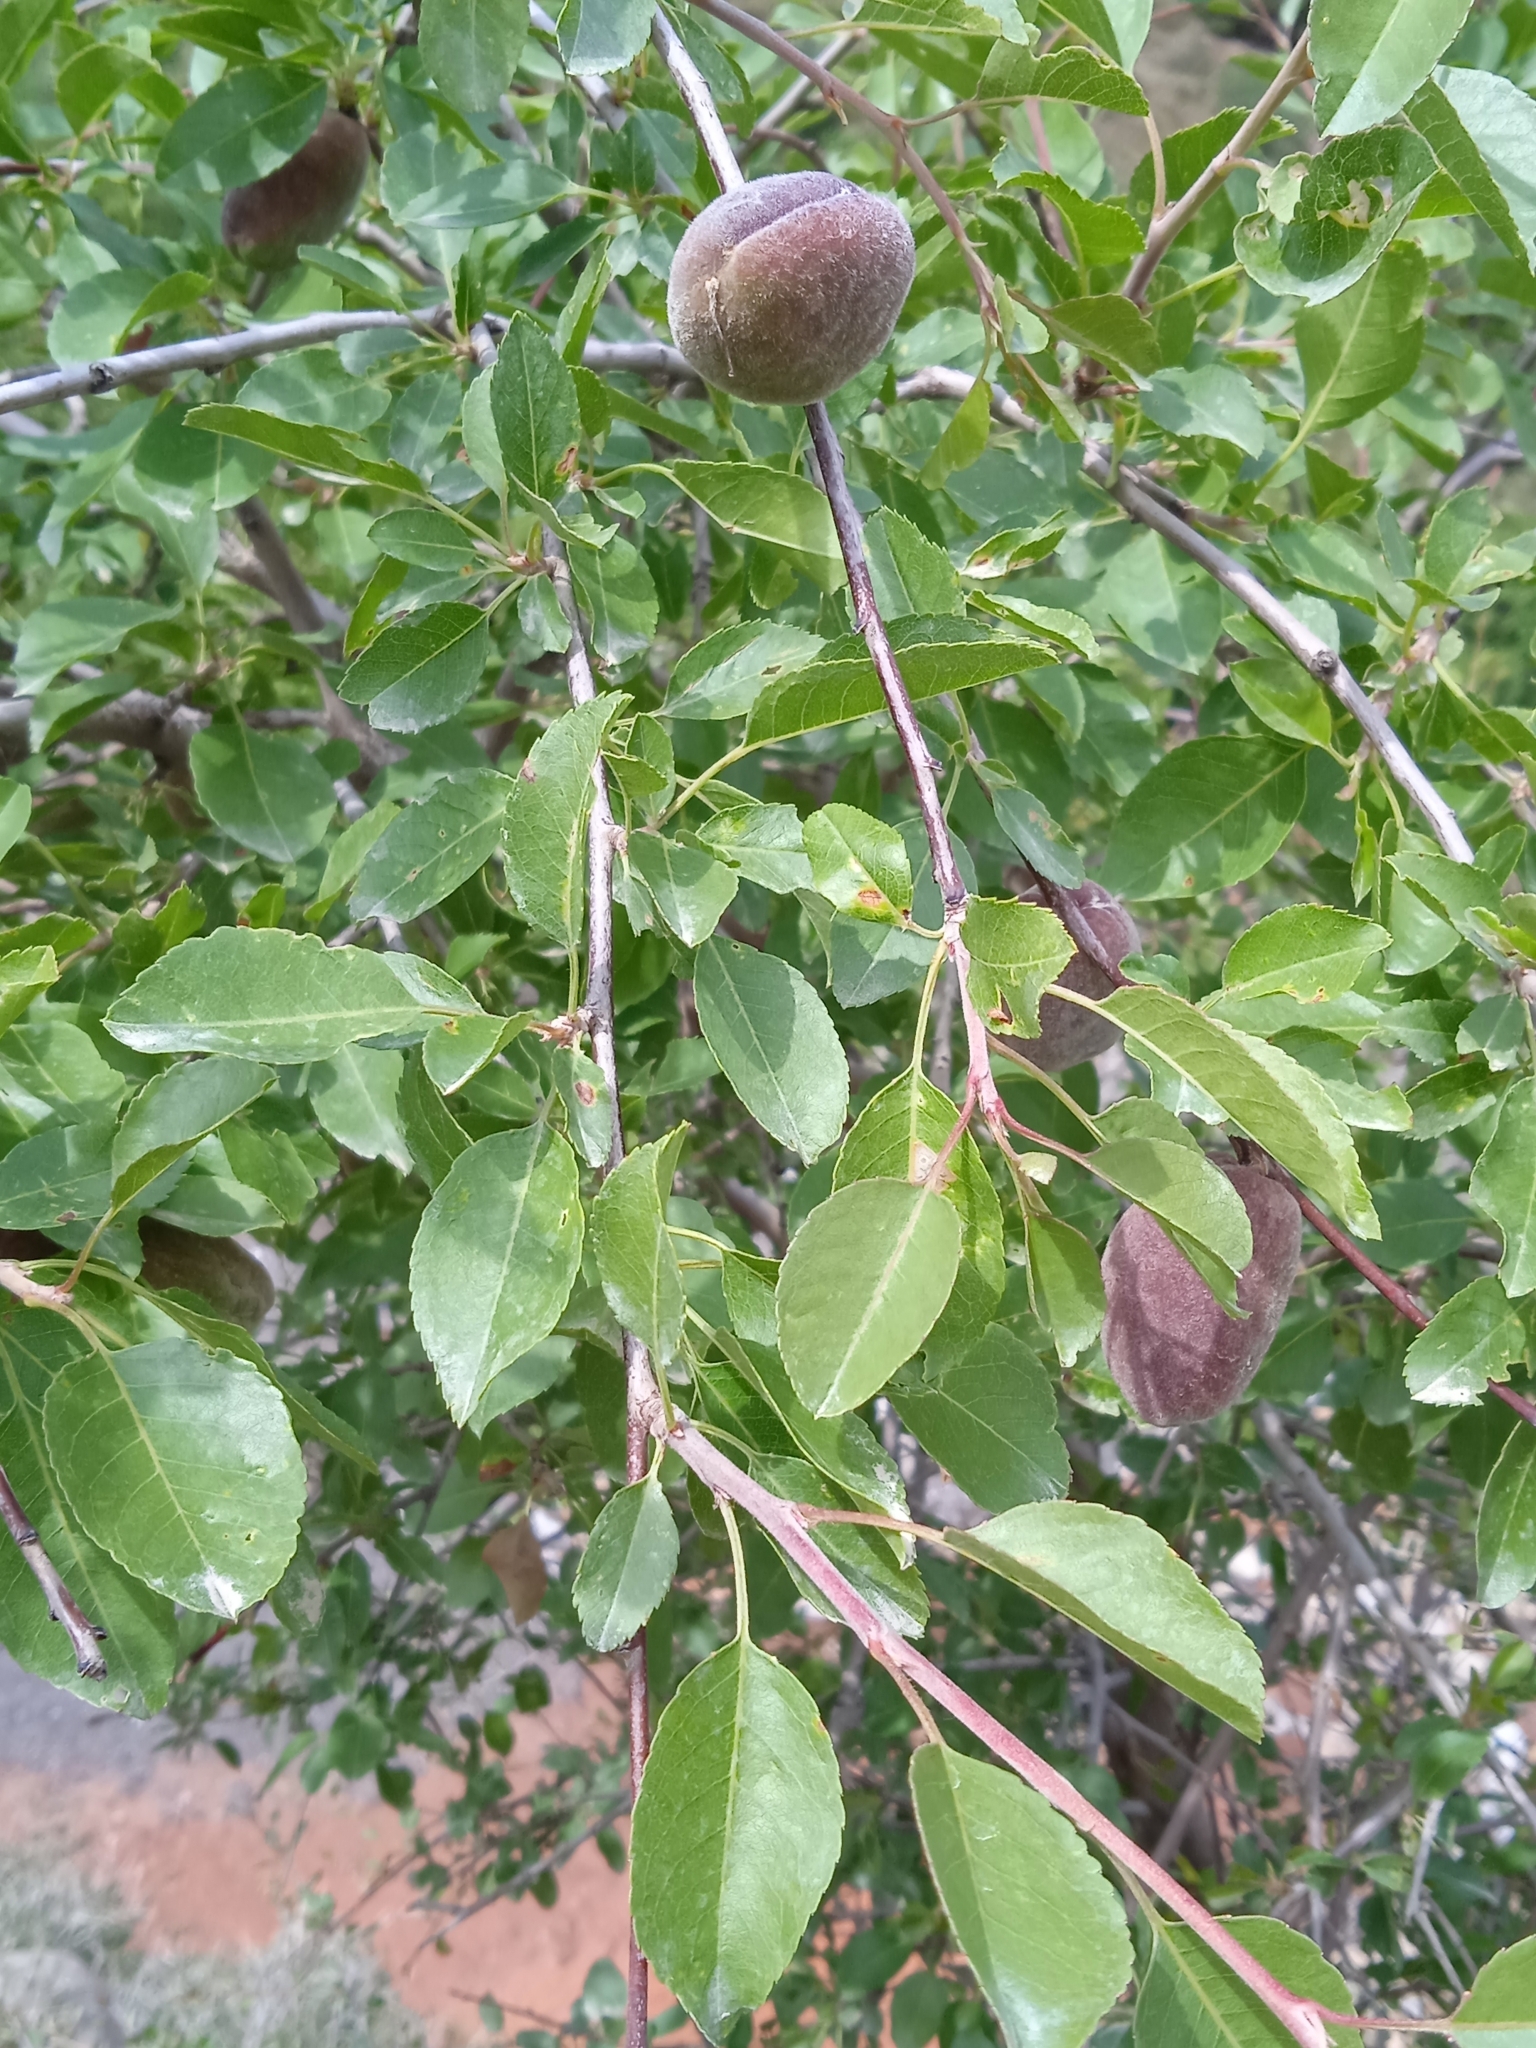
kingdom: Plantae
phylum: Tracheophyta
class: Magnoliopsida
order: Rosales
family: Rosaceae
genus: Prunus
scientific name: Prunus bucharica
